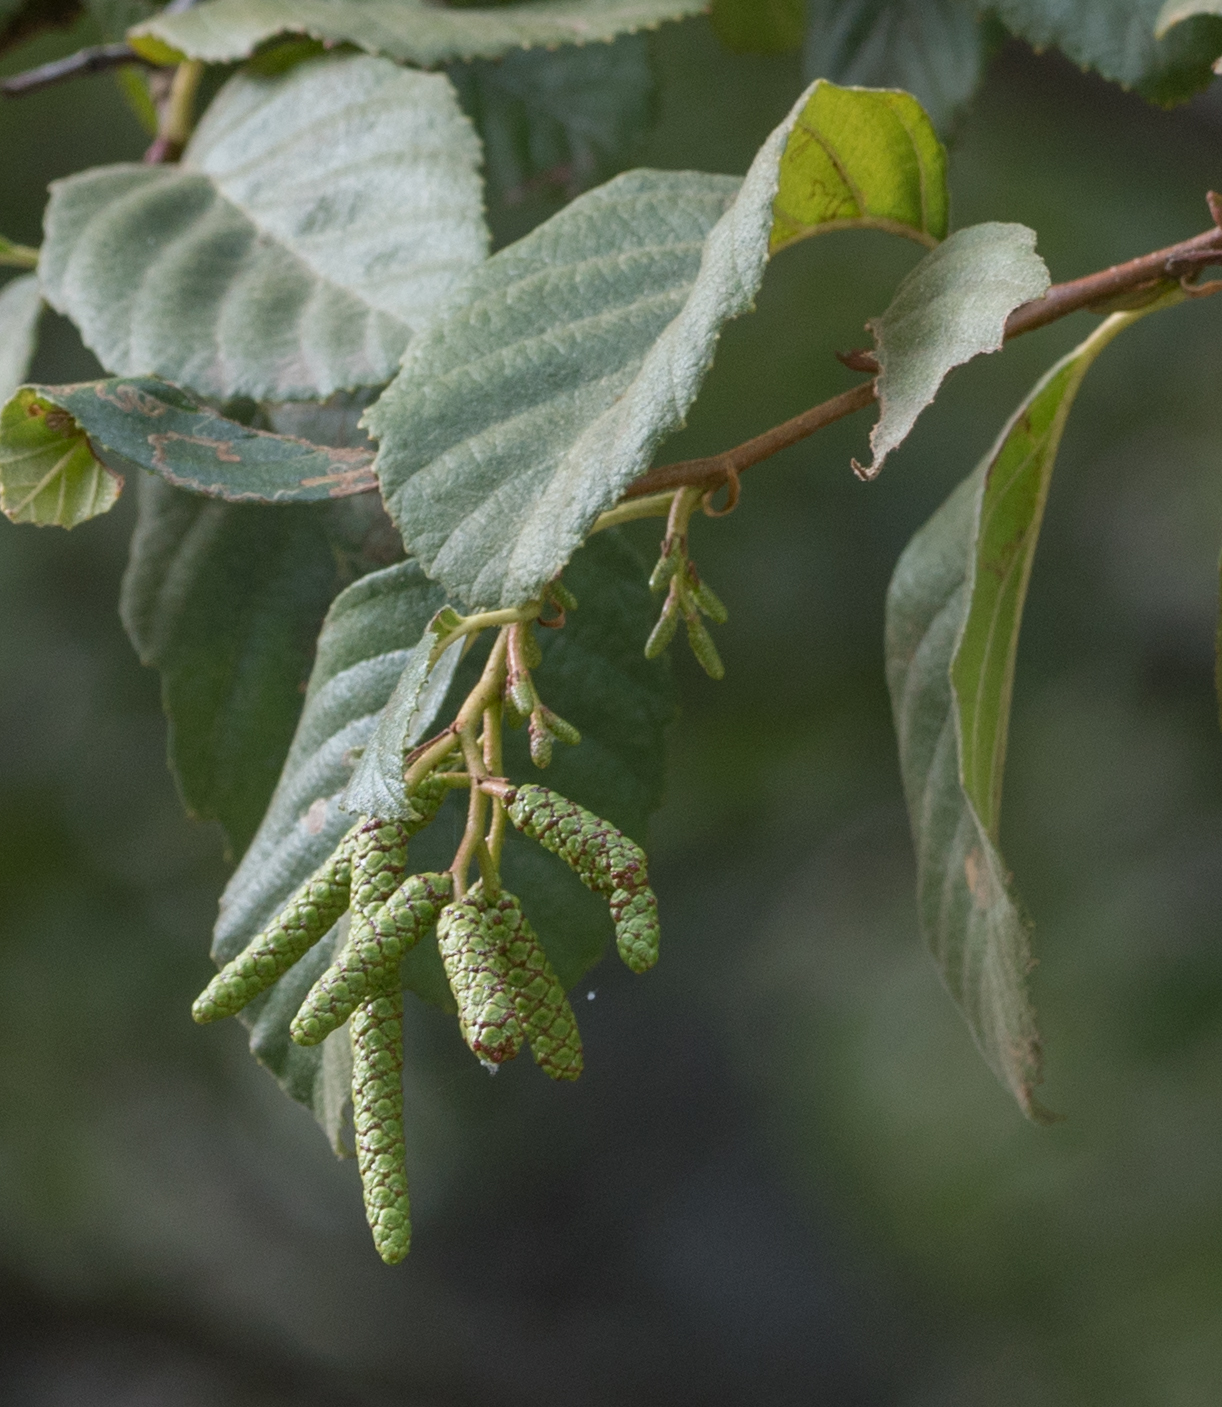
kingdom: Plantae
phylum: Tracheophyta
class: Magnoliopsida
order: Fagales
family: Betulaceae
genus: Alnus
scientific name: Alnus rhombifolia
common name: California alder
